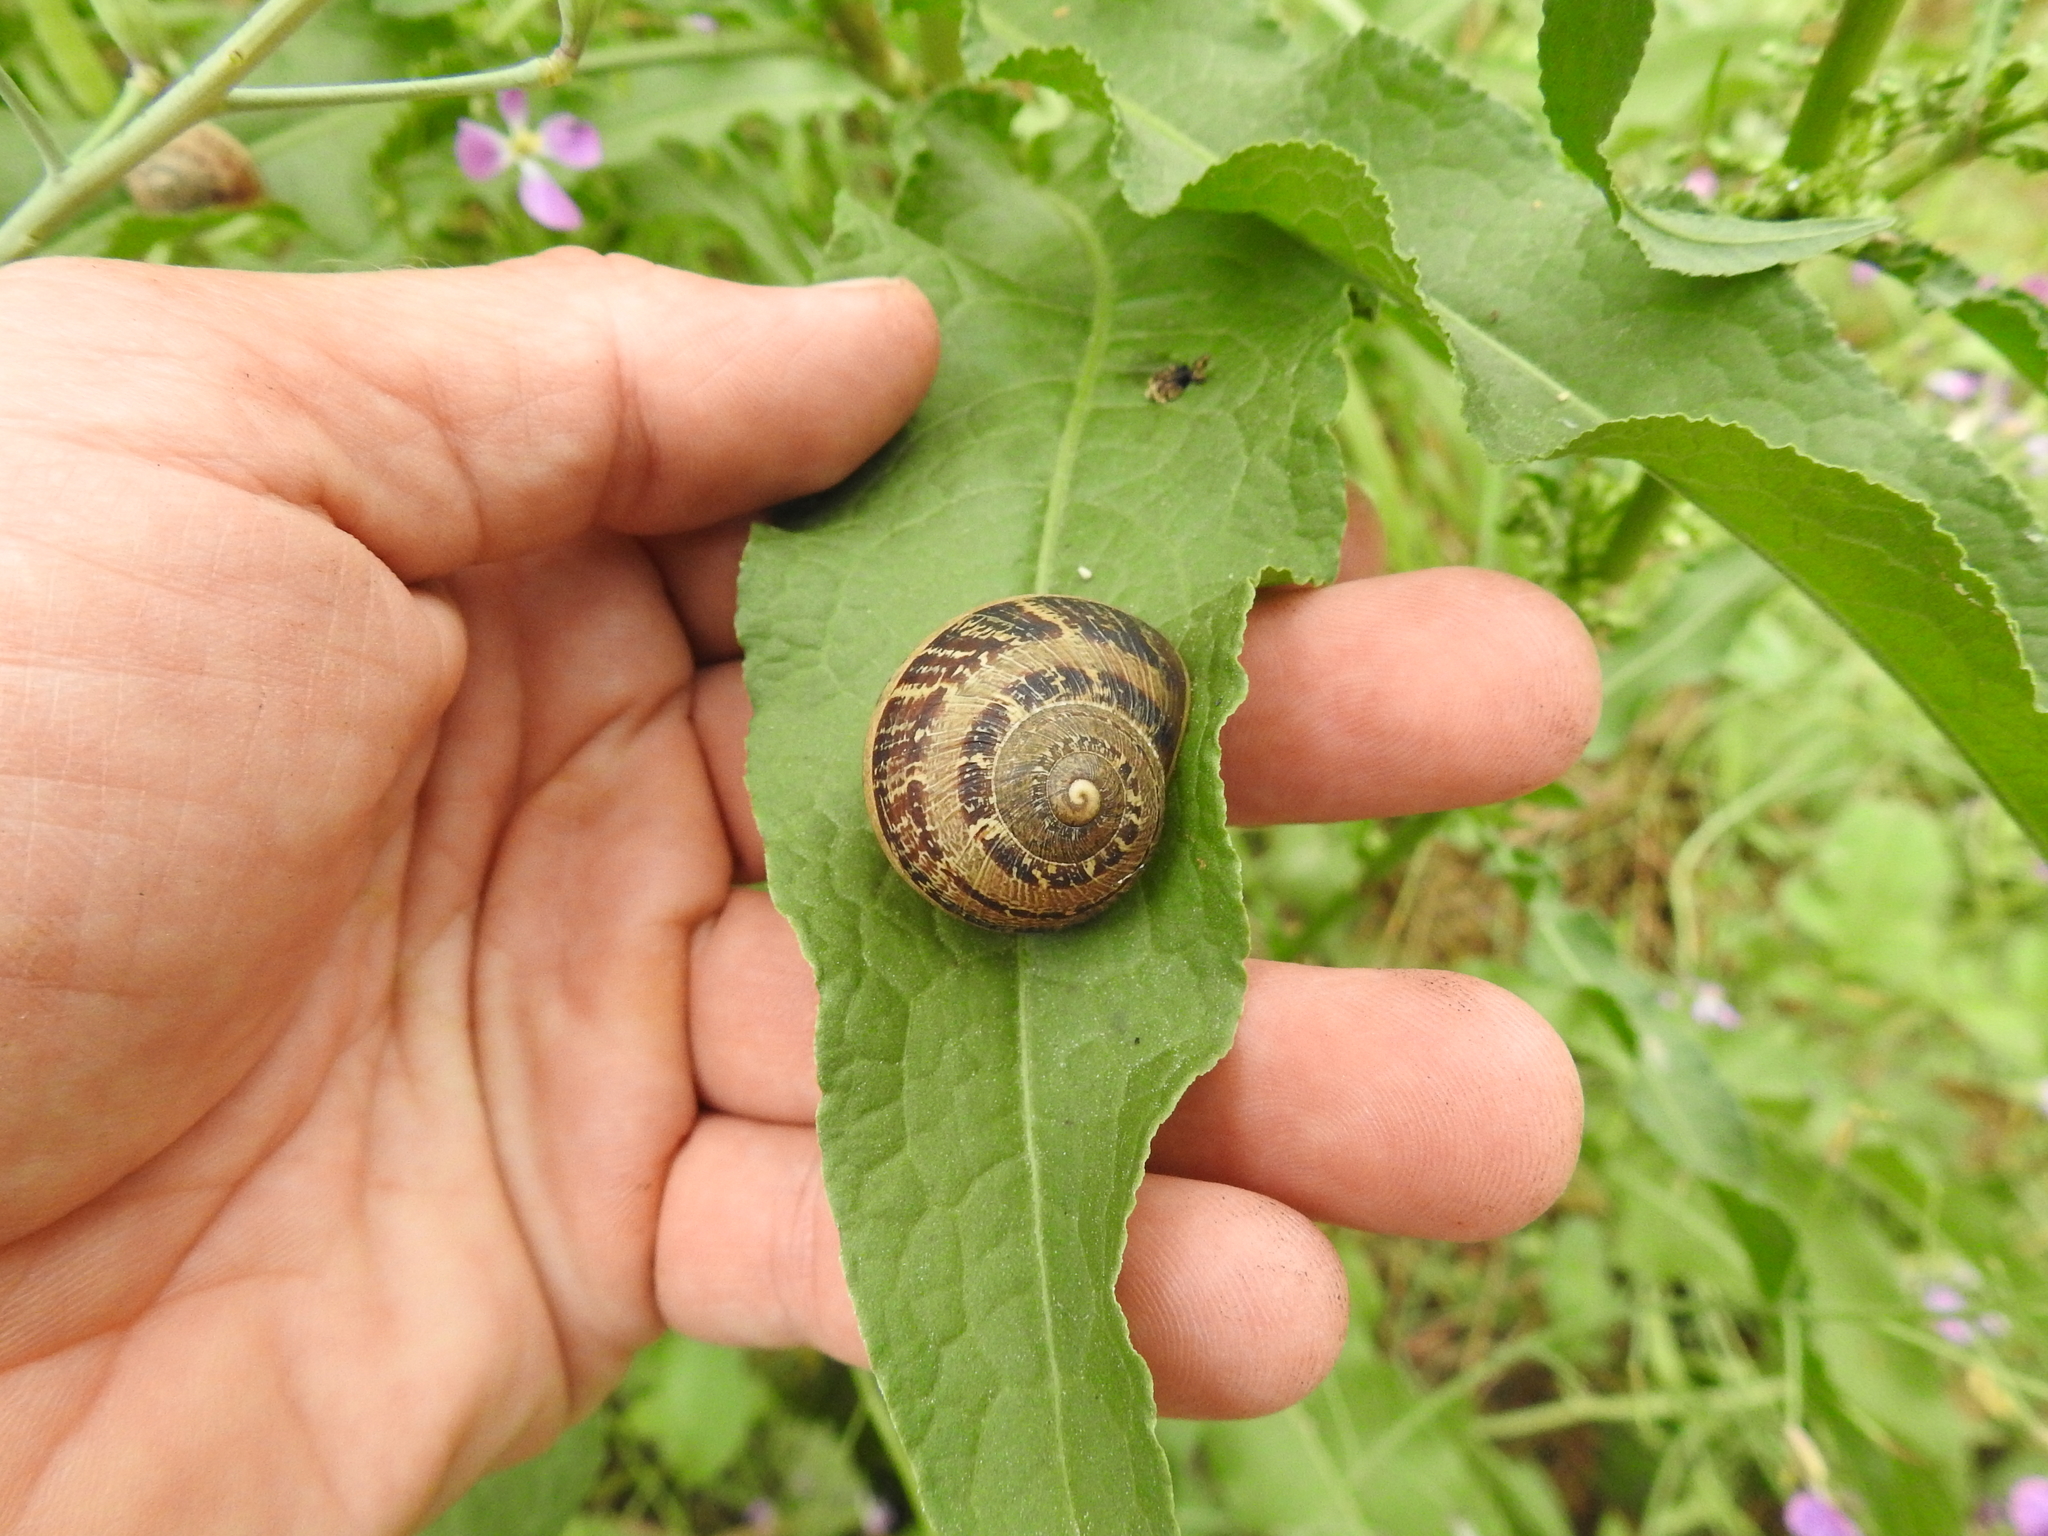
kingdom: Animalia
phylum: Mollusca
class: Gastropoda
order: Stylommatophora
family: Helicidae
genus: Cornu
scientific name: Cornu aspersum
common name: Brown garden snail
